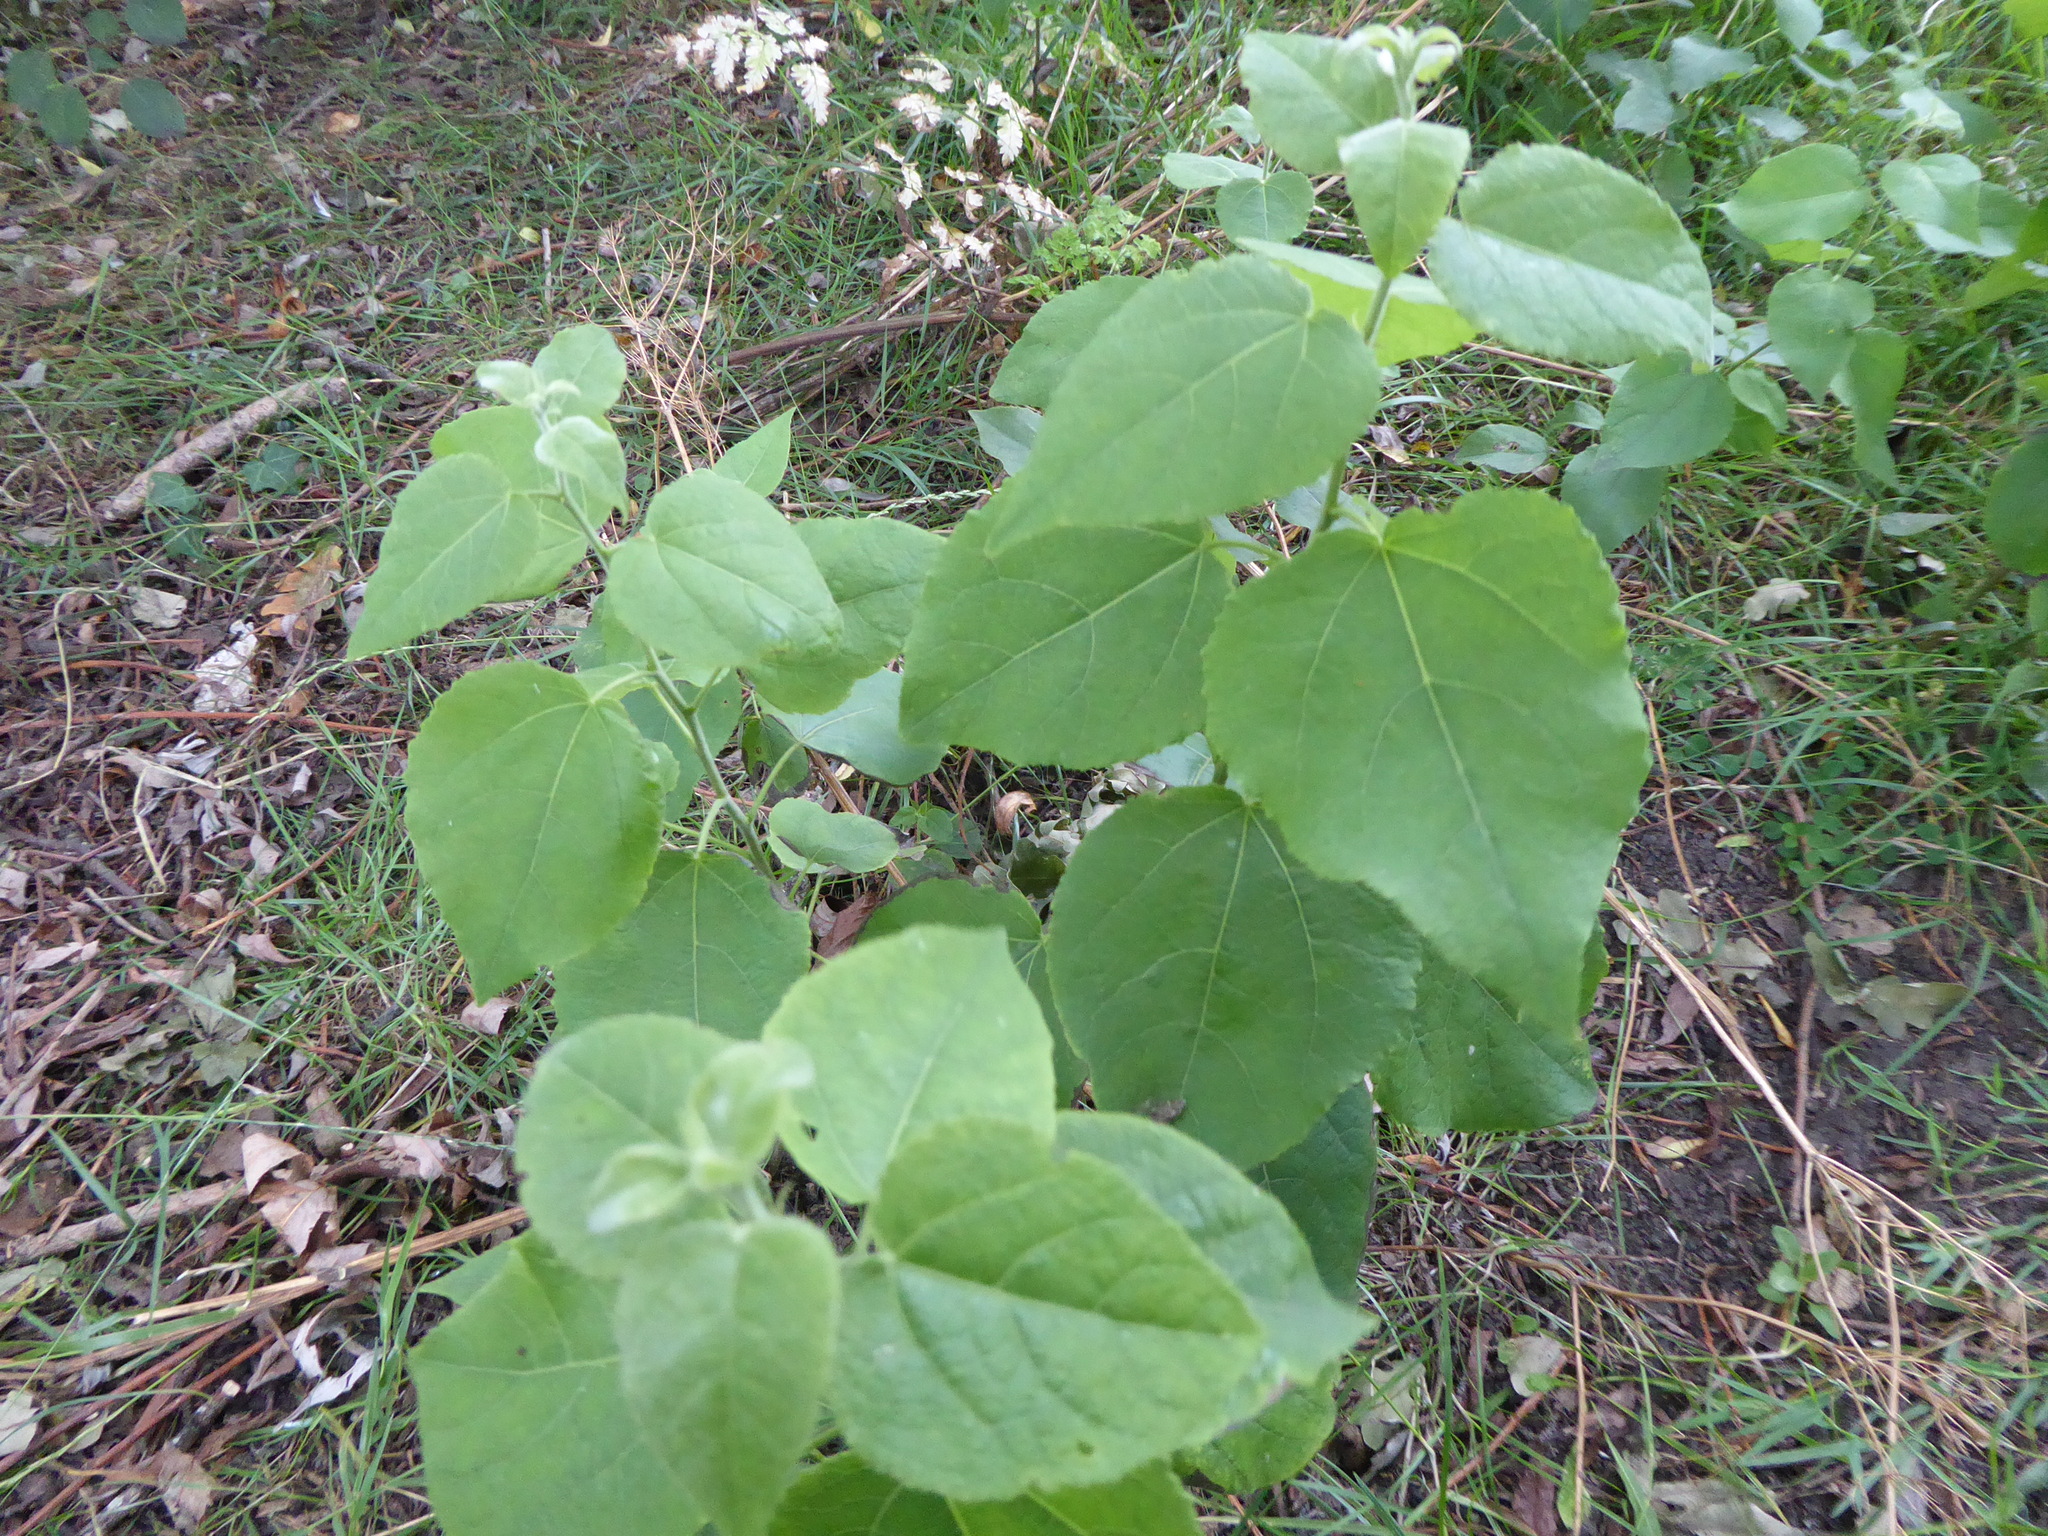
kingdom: Plantae
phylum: Tracheophyta
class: Magnoliopsida
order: Malpighiales
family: Salicaceae
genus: Populus
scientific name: Populus tremula
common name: European aspen
